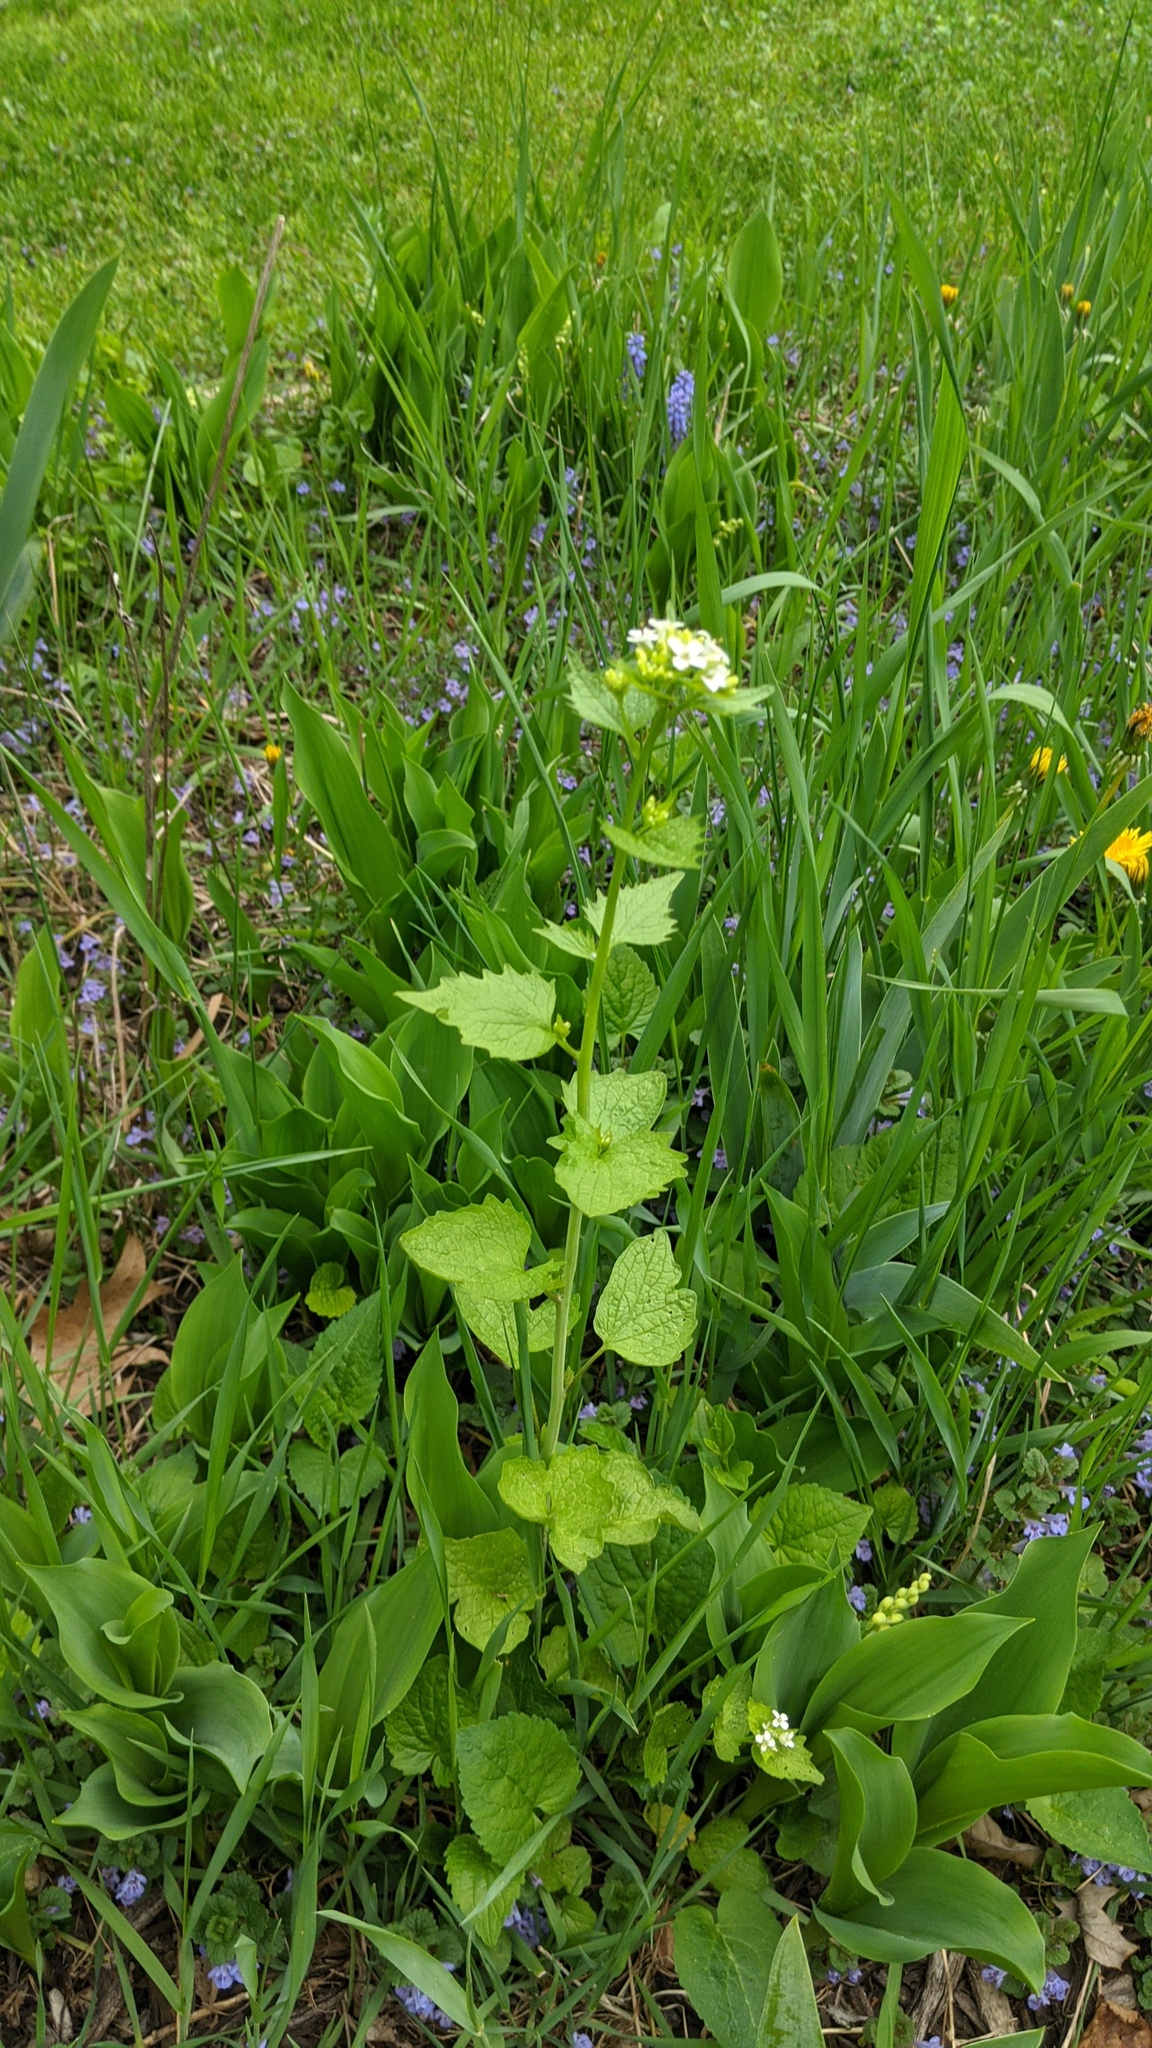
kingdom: Plantae
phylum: Tracheophyta
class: Magnoliopsida
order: Brassicales
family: Brassicaceae
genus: Alliaria
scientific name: Alliaria petiolata
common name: Garlic mustard
